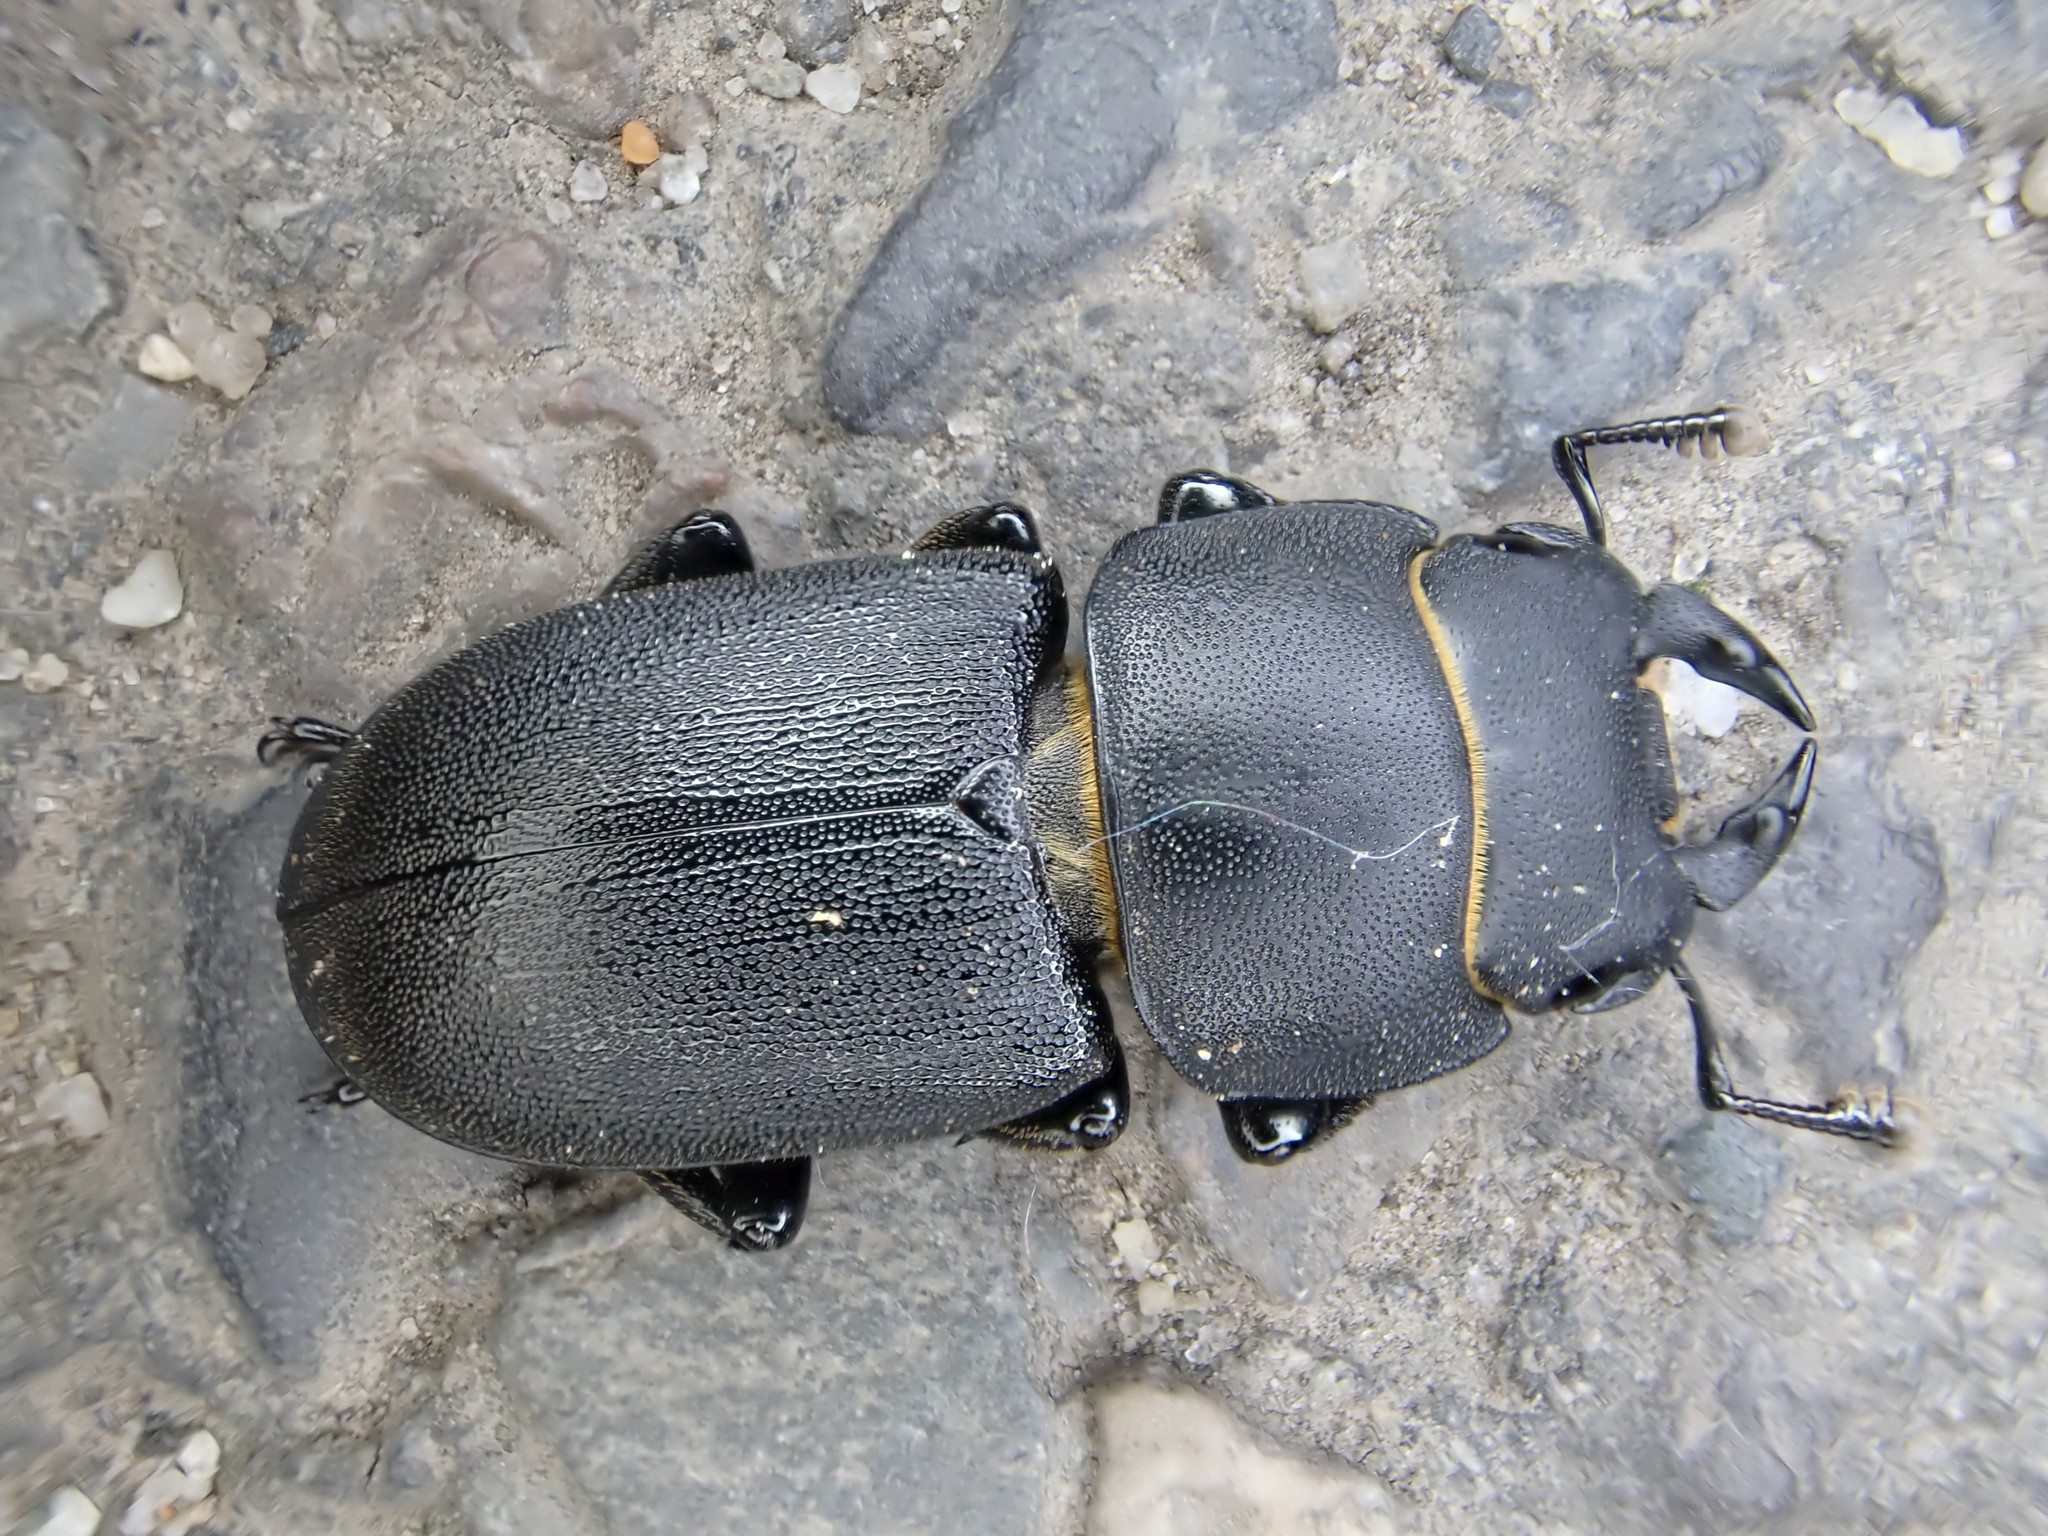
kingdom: Animalia
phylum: Arthropoda
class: Insecta
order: Coleoptera
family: Lucanidae
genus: Dorcus
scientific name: Dorcus parallelipipedus
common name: Lesser stag beetle
